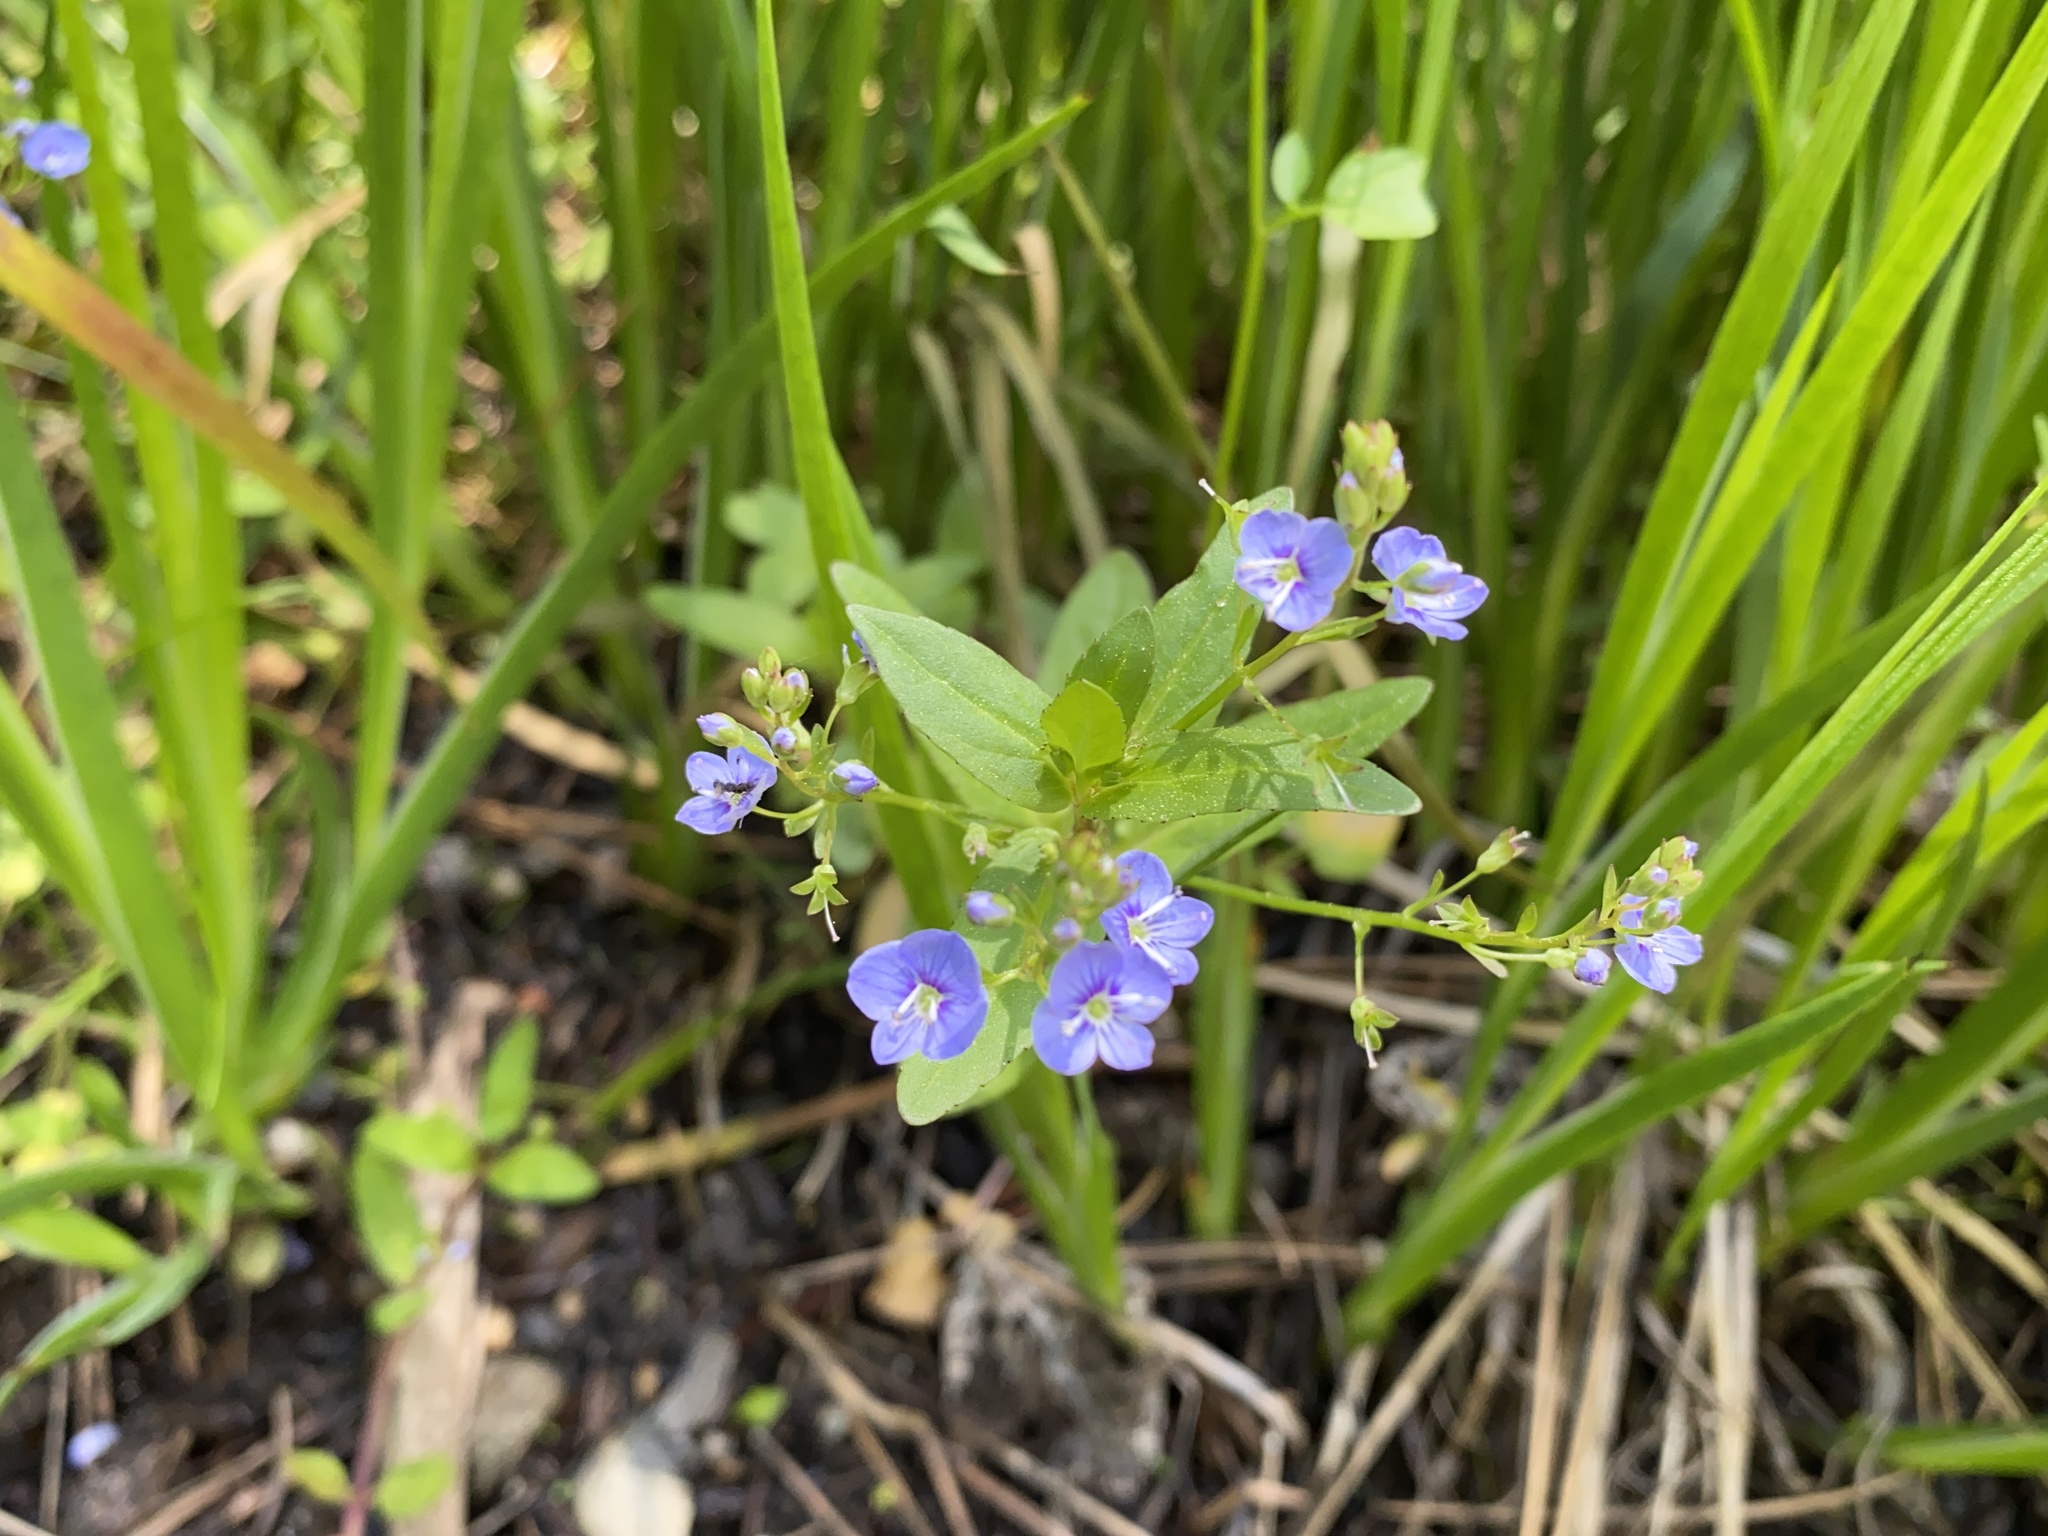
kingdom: Plantae
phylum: Tracheophyta
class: Magnoliopsida
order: Lamiales
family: Plantaginaceae
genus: Veronica
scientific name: Veronica americana
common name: American brooklime
